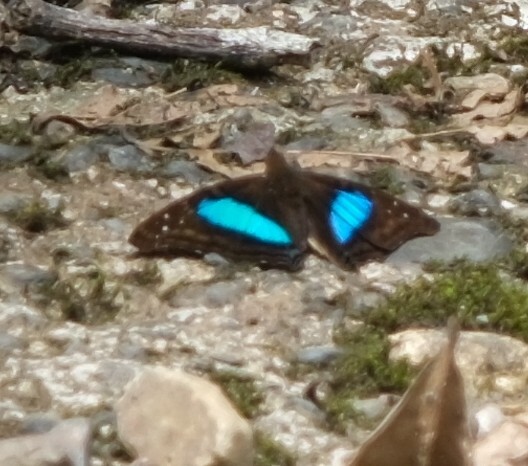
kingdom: Animalia
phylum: Arthropoda
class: Insecta
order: Lepidoptera
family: Nymphalidae
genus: Doxocopa
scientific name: Doxocopa laurentia
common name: Turquoise emperor
